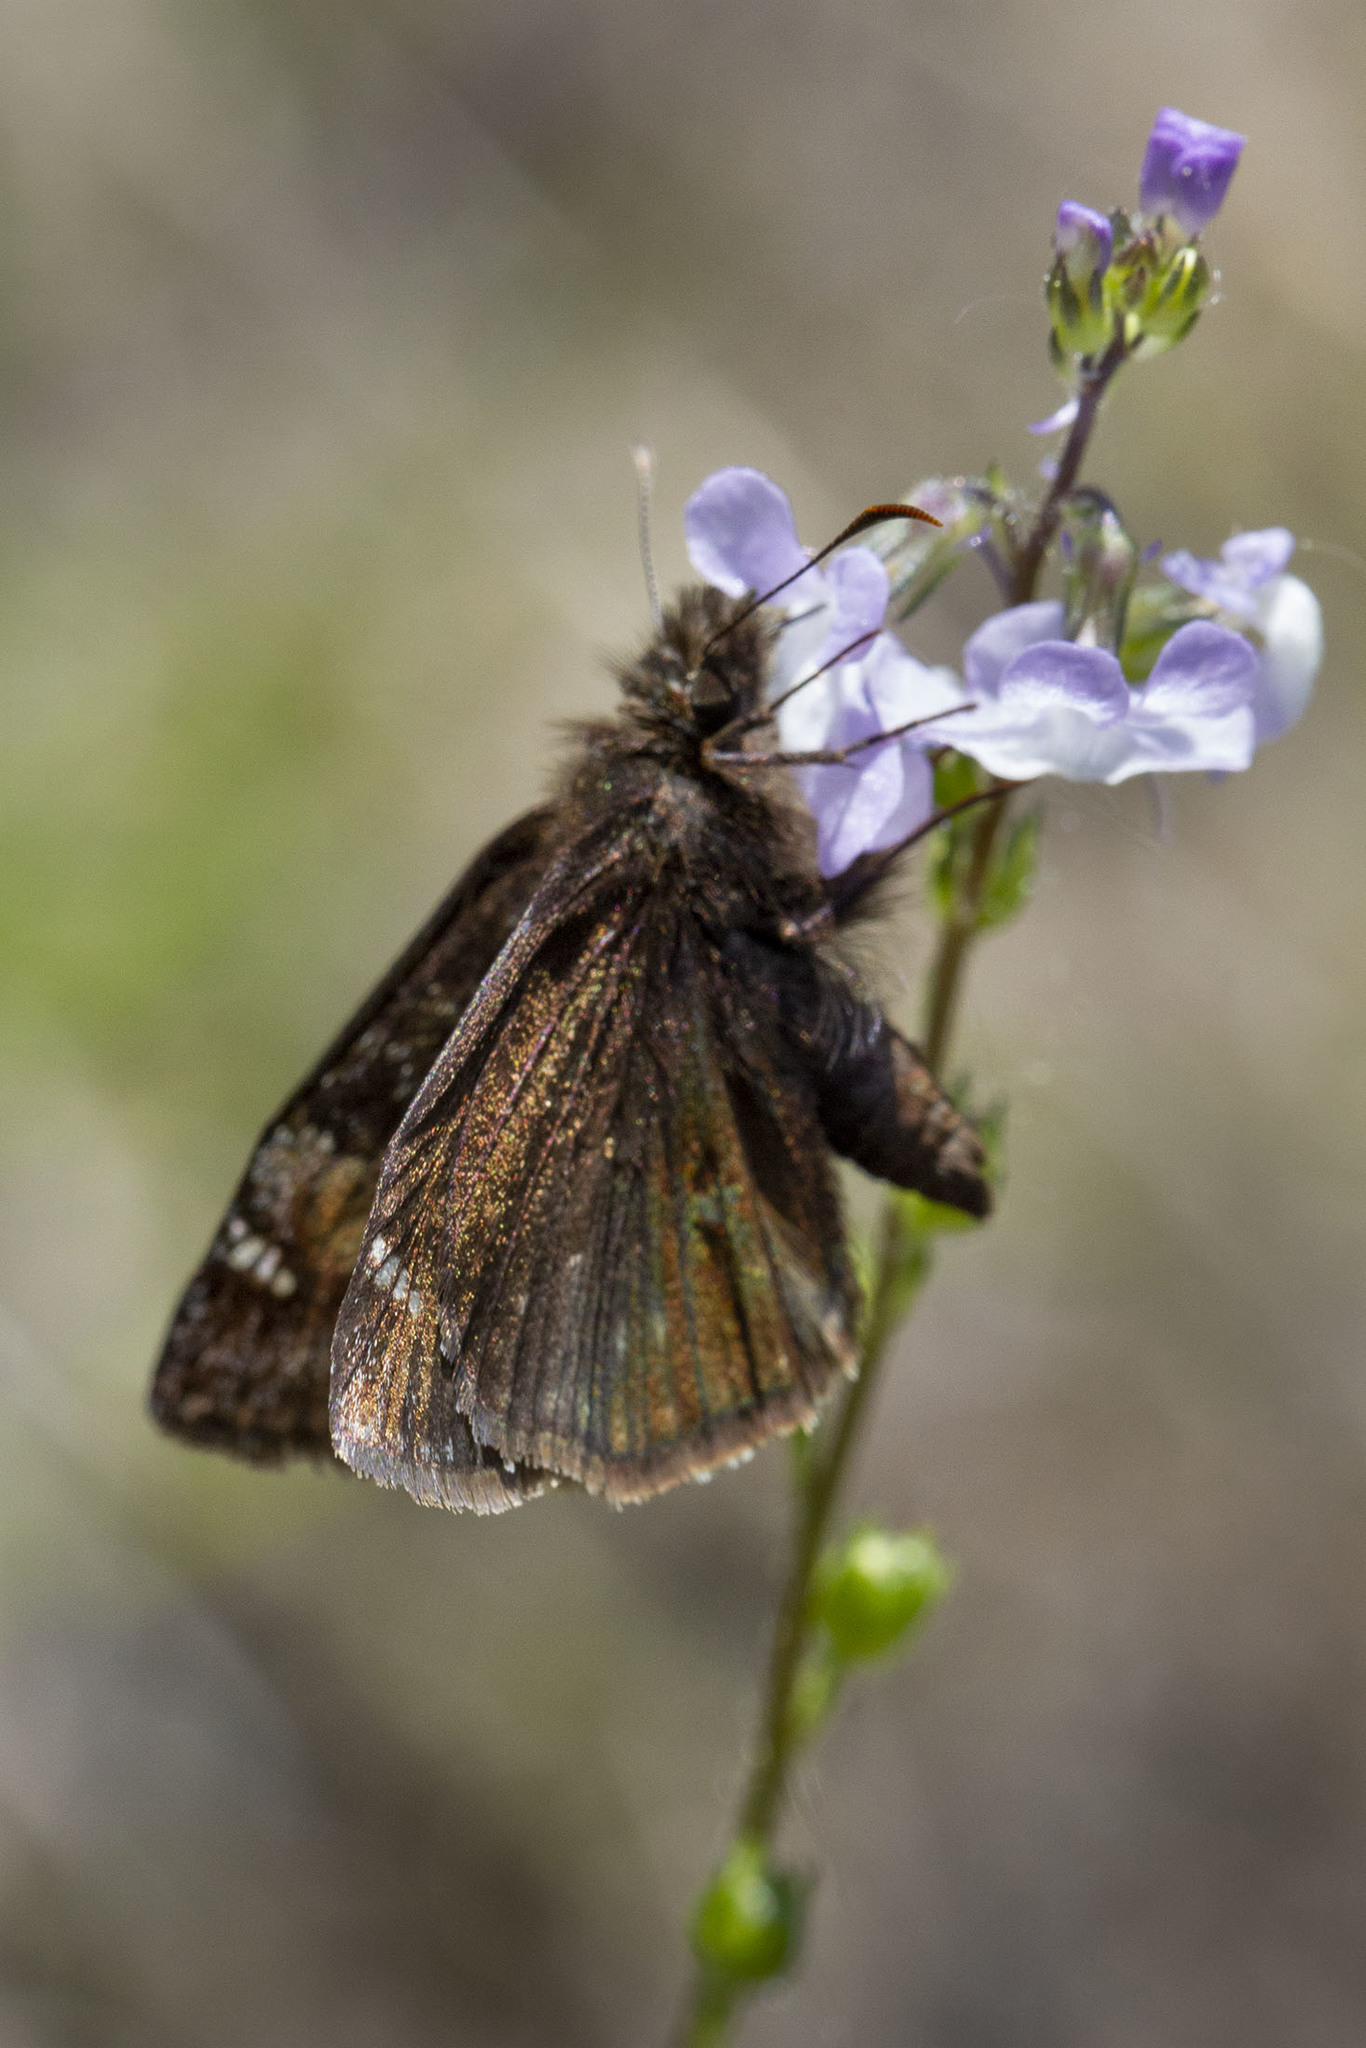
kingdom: Animalia
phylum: Arthropoda
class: Insecta
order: Lepidoptera
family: Hesperiidae
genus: Erynnis
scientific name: Erynnis baptisiae
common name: Wild indigo duskywing
